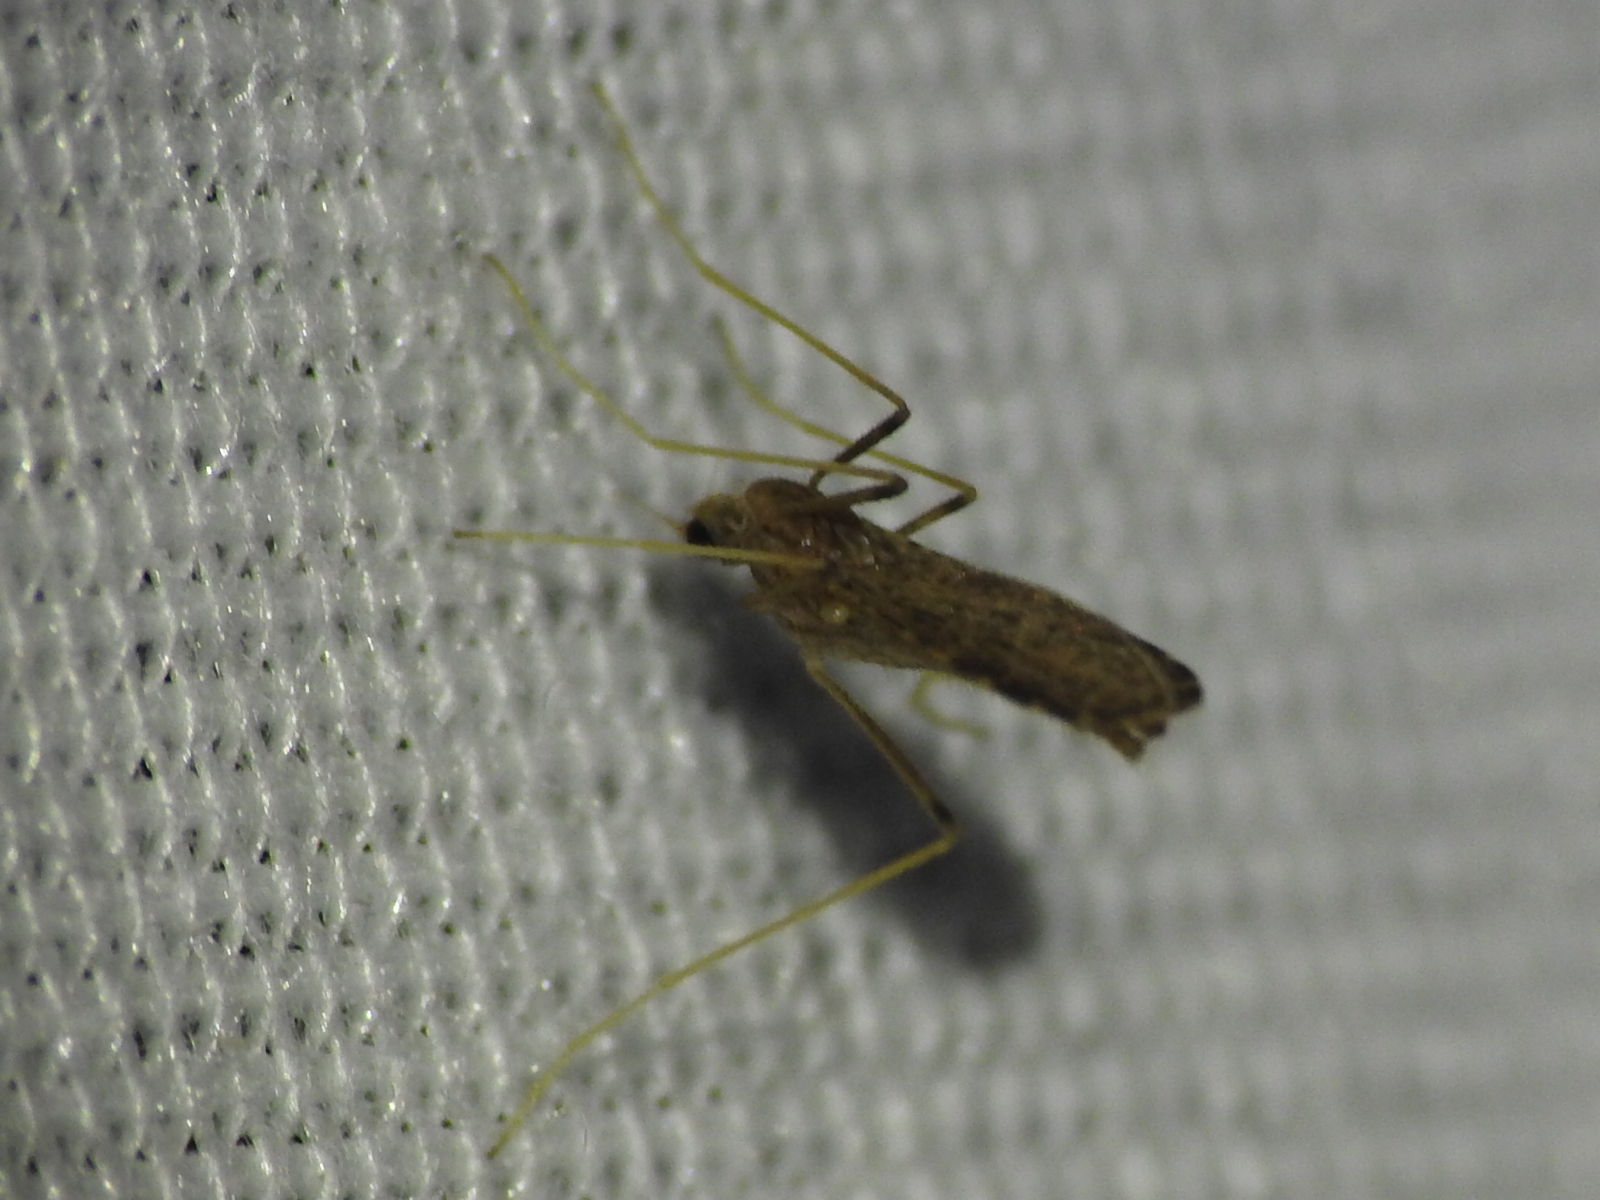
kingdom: Animalia
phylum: Arthropoda
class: Insecta
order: Diptera
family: Limoniidae
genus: Erioptera
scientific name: Erioptera tantilla
